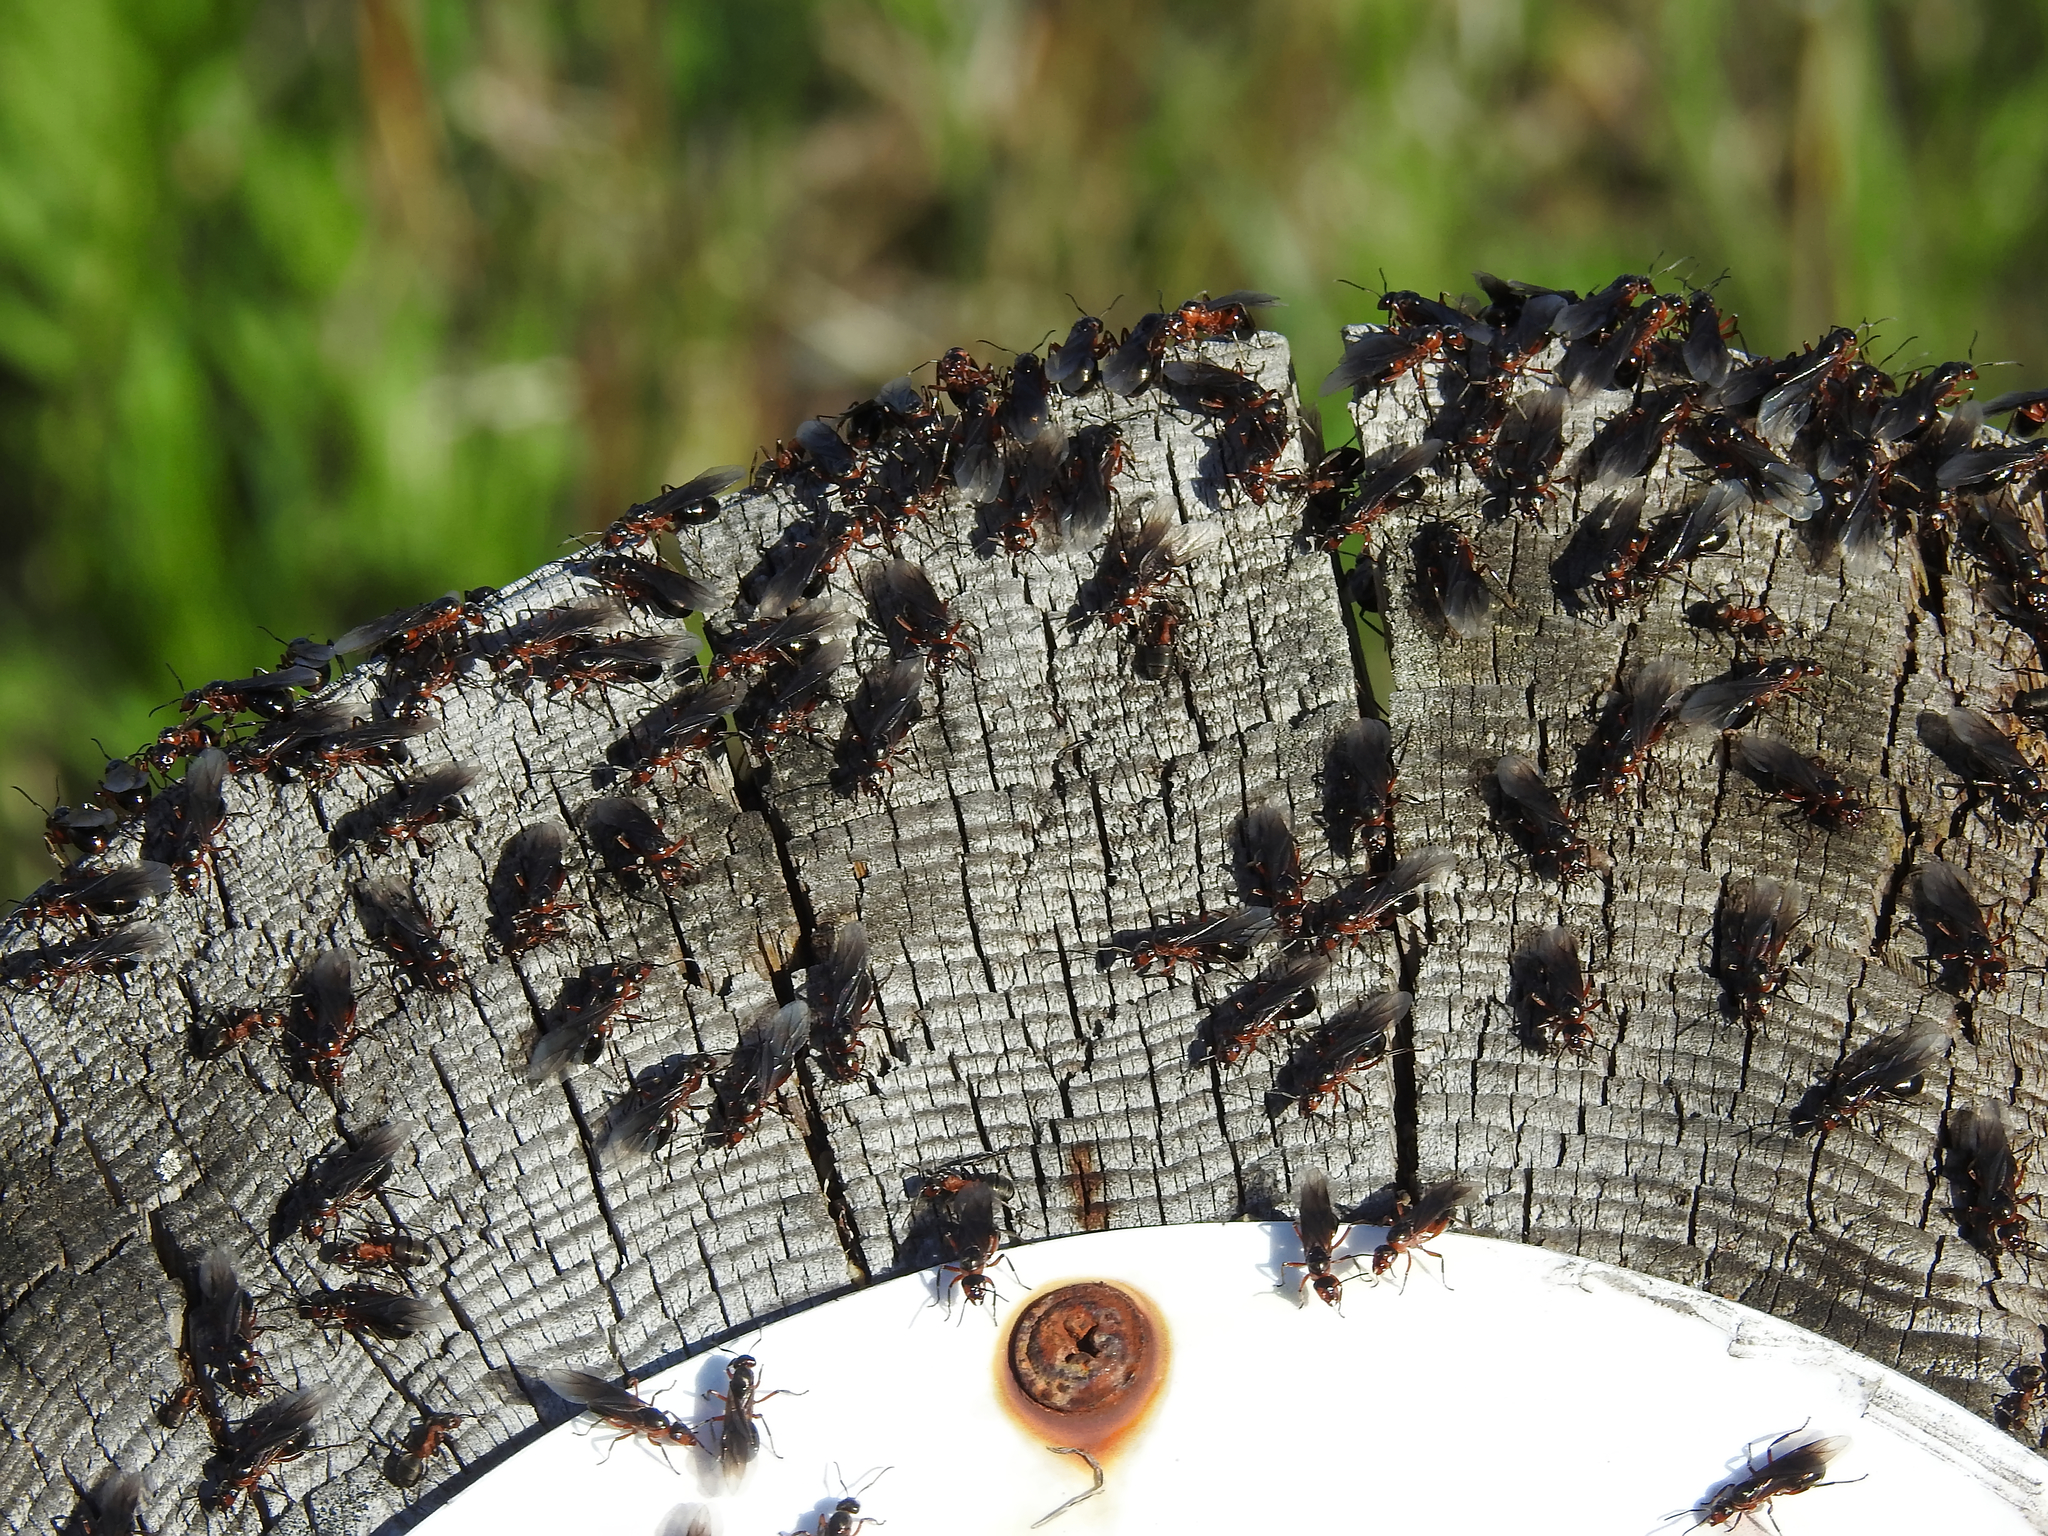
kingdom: Animalia
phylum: Arthropoda
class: Insecta
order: Hymenoptera
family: Formicidae
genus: Formica
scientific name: Formica
